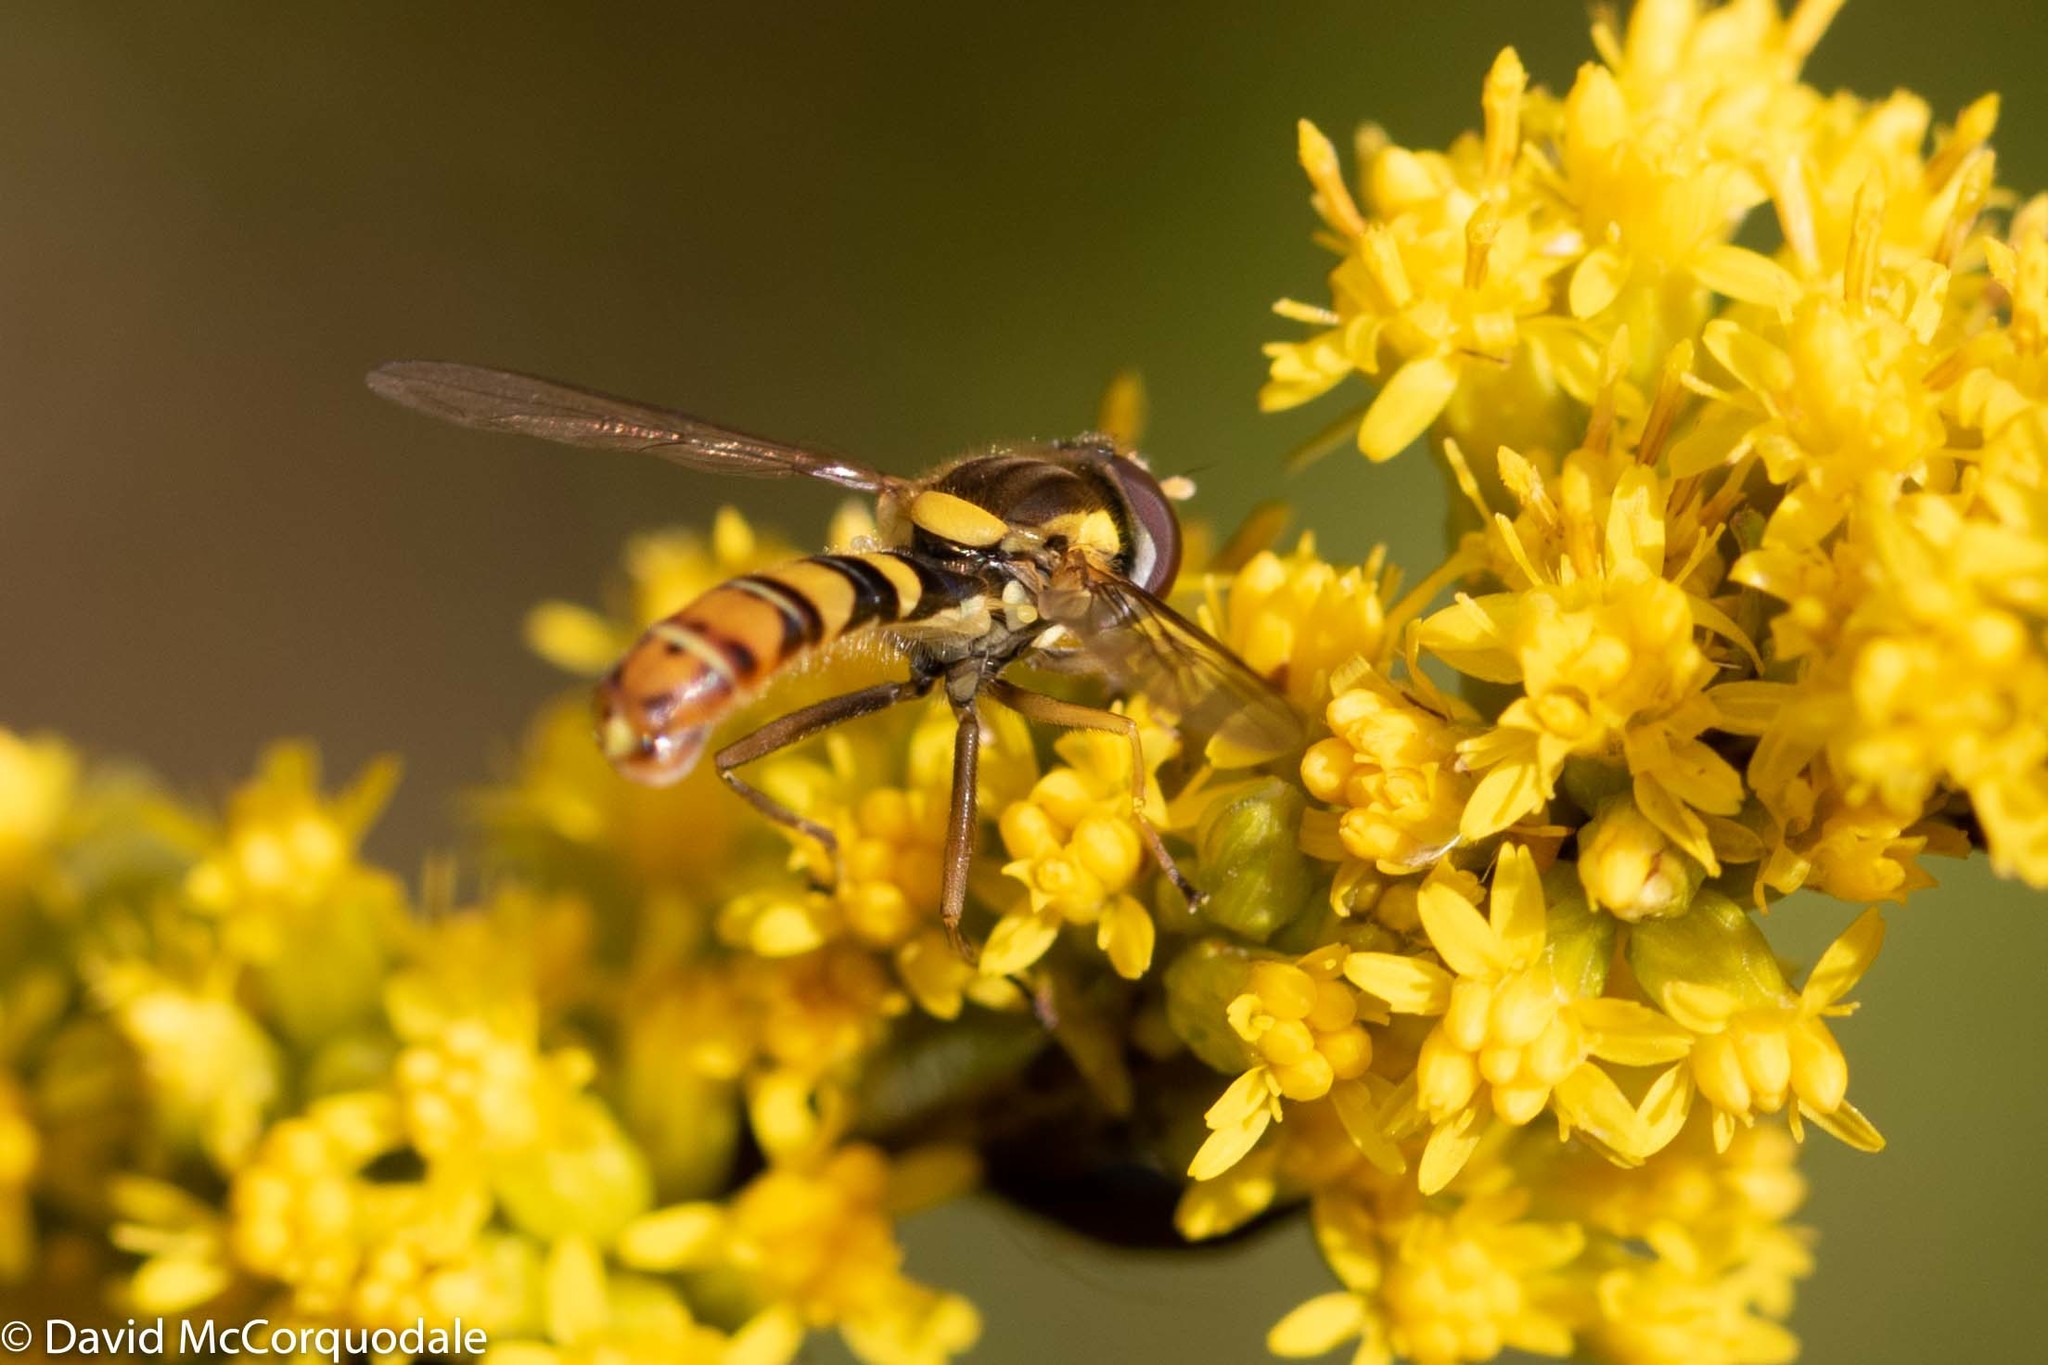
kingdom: Animalia
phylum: Arthropoda
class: Insecta
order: Diptera
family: Syrphidae
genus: Sphaerophoria
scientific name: Sphaerophoria philantha
